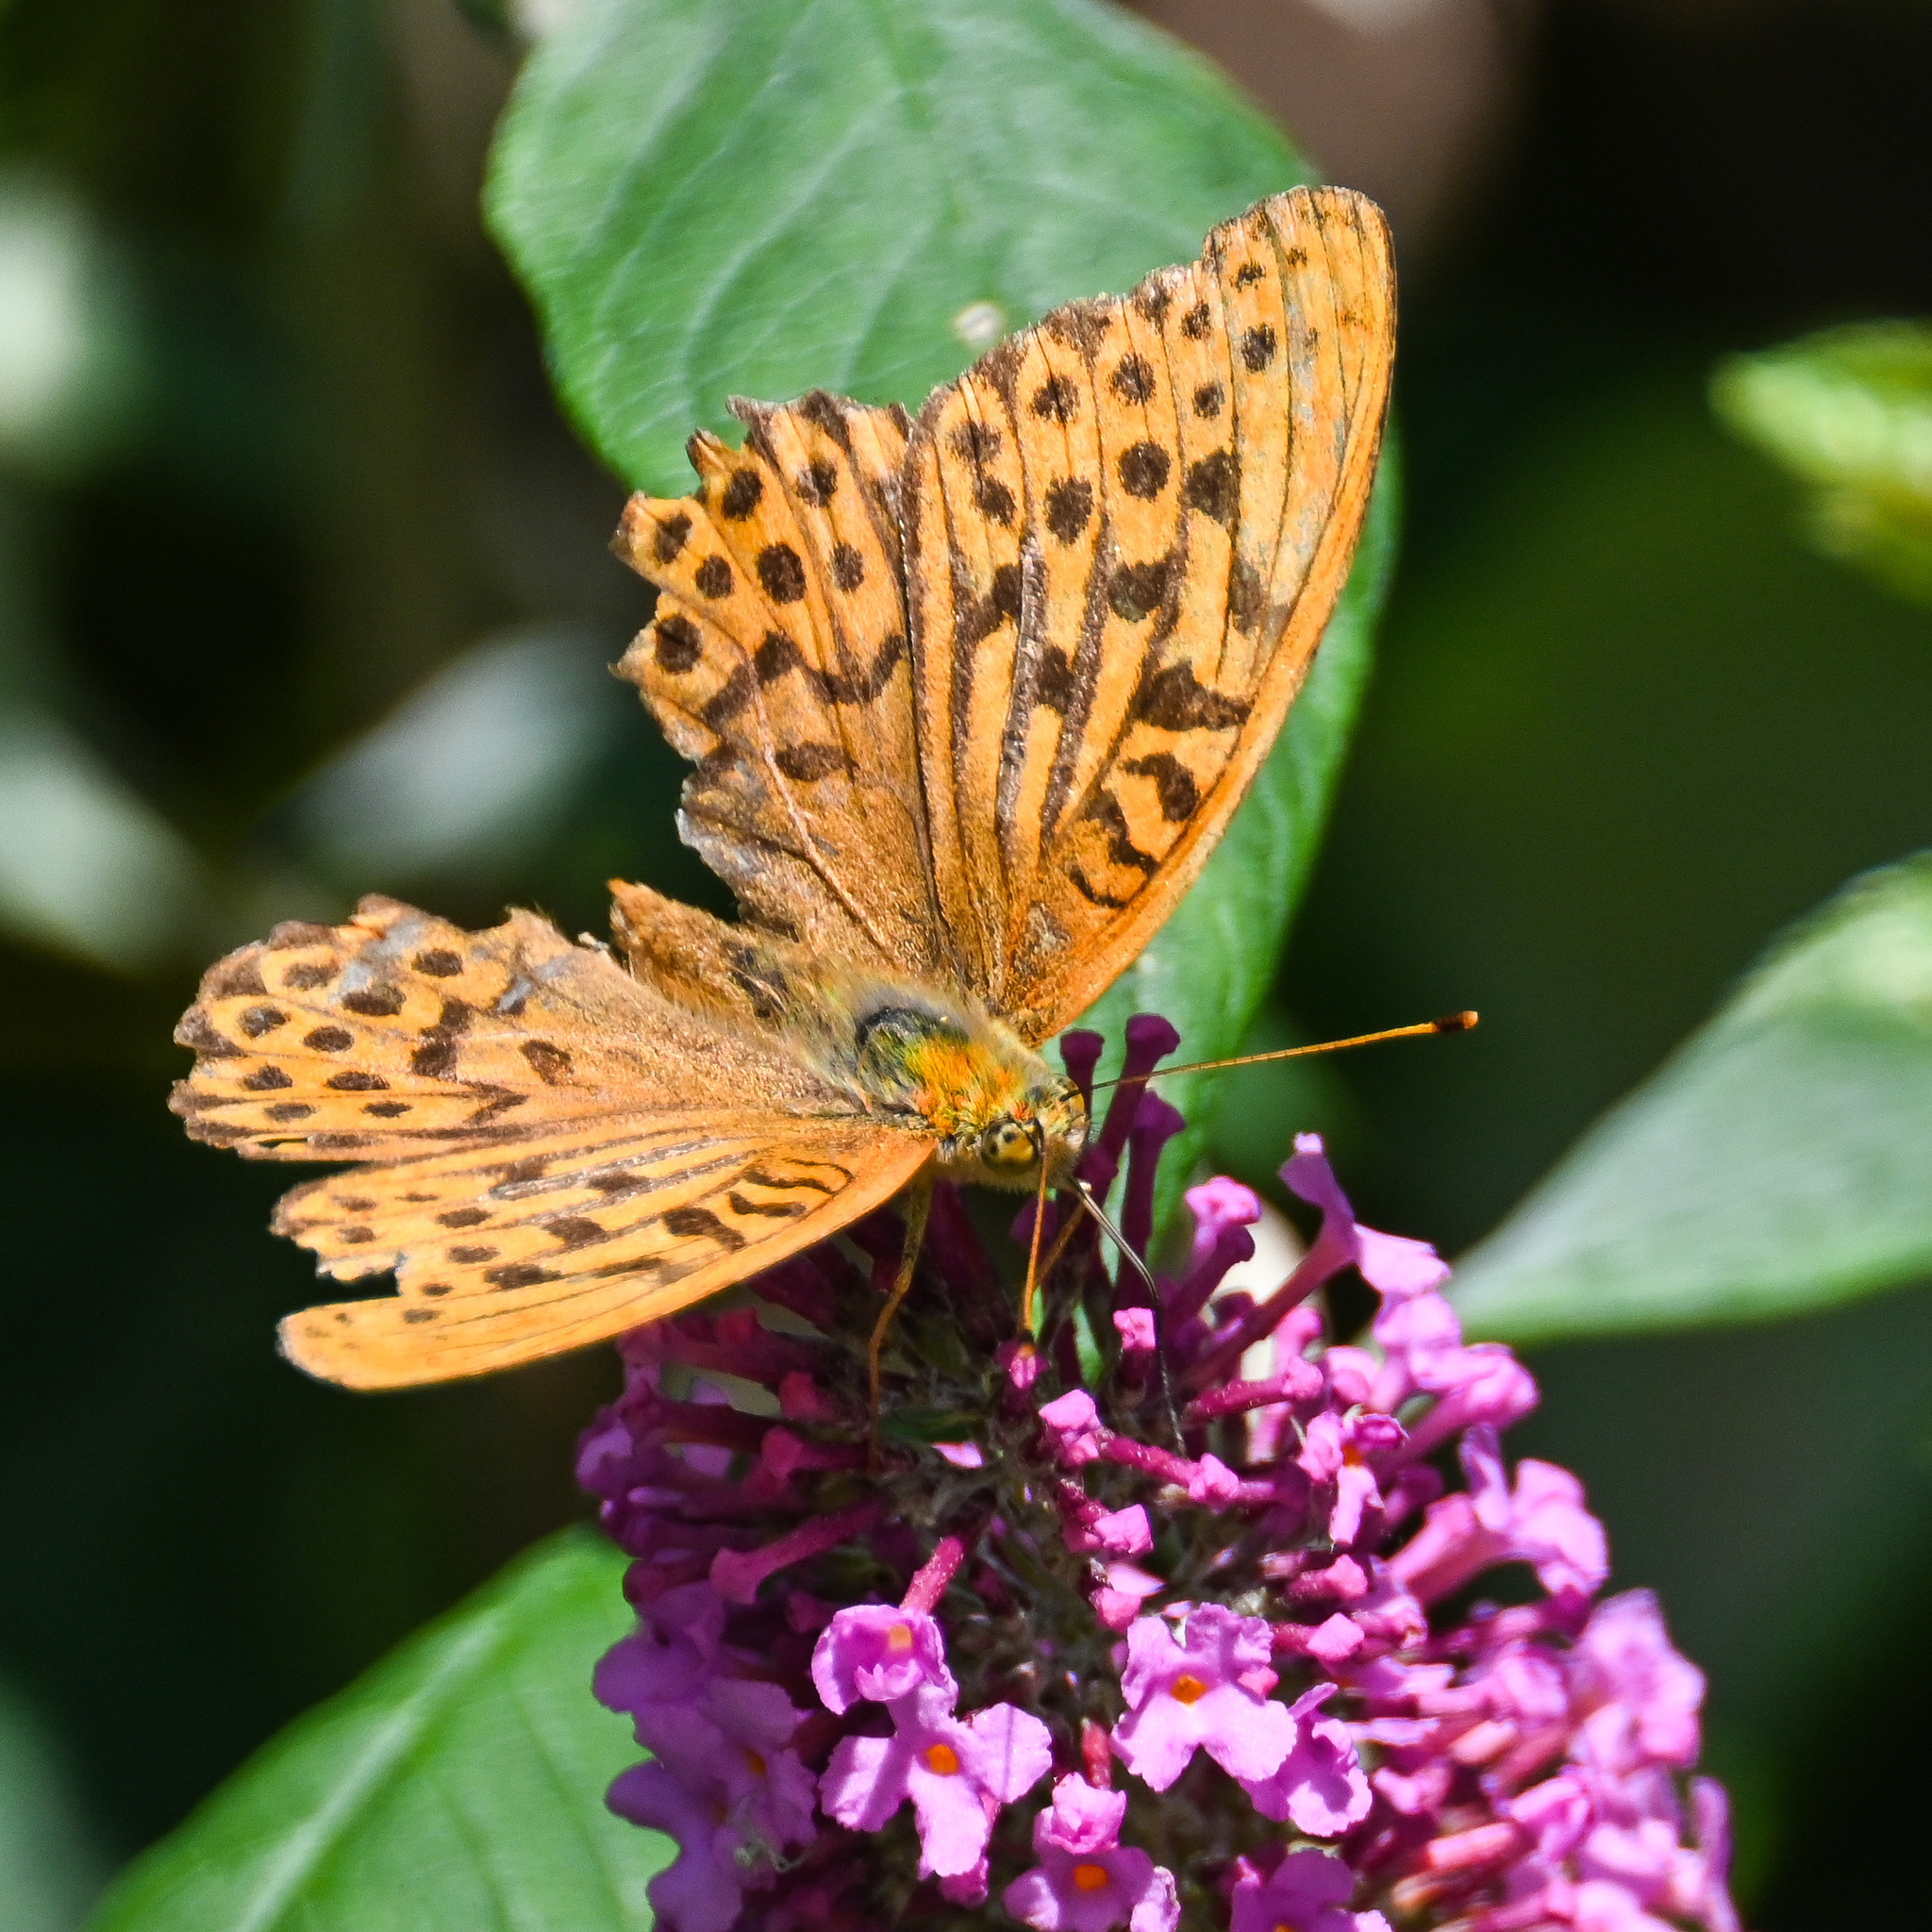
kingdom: Animalia
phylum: Arthropoda
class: Insecta
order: Lepidoptera
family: Nymphalidae
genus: Argynnis
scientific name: Argynnis paphia
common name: Silver-washed fritillary
